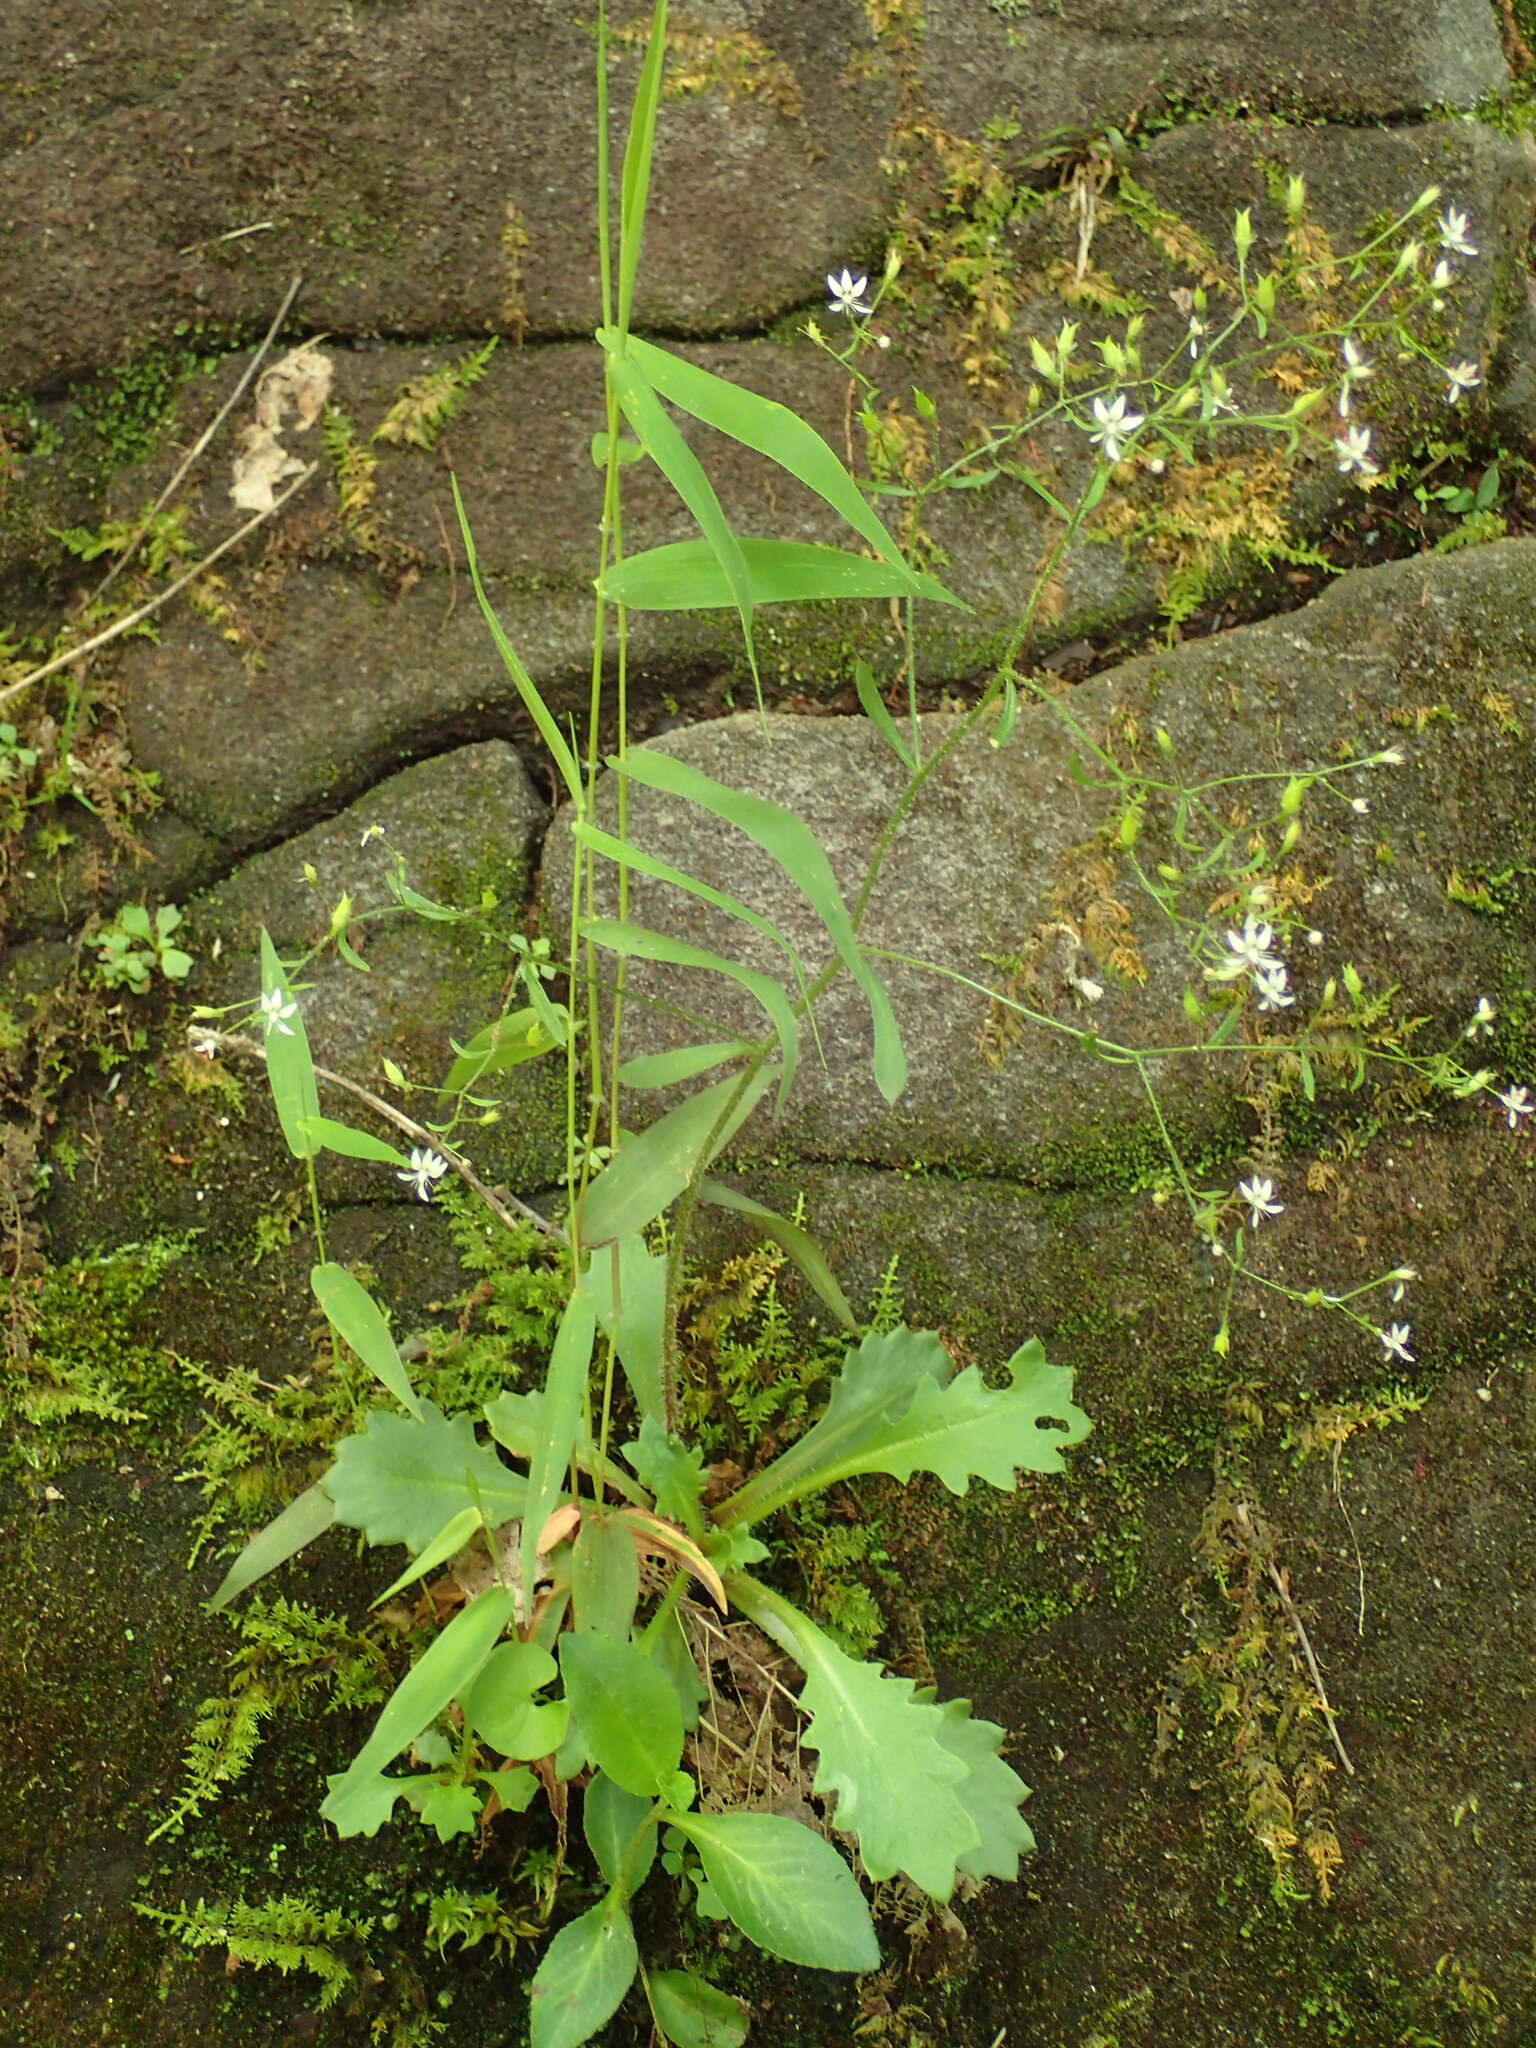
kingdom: Plantae
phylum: Tracheophyta
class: Magnoliopsida
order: Saxifragales
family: Saxifragaceae
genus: Micranthes
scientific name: Micranthes petiolaris
